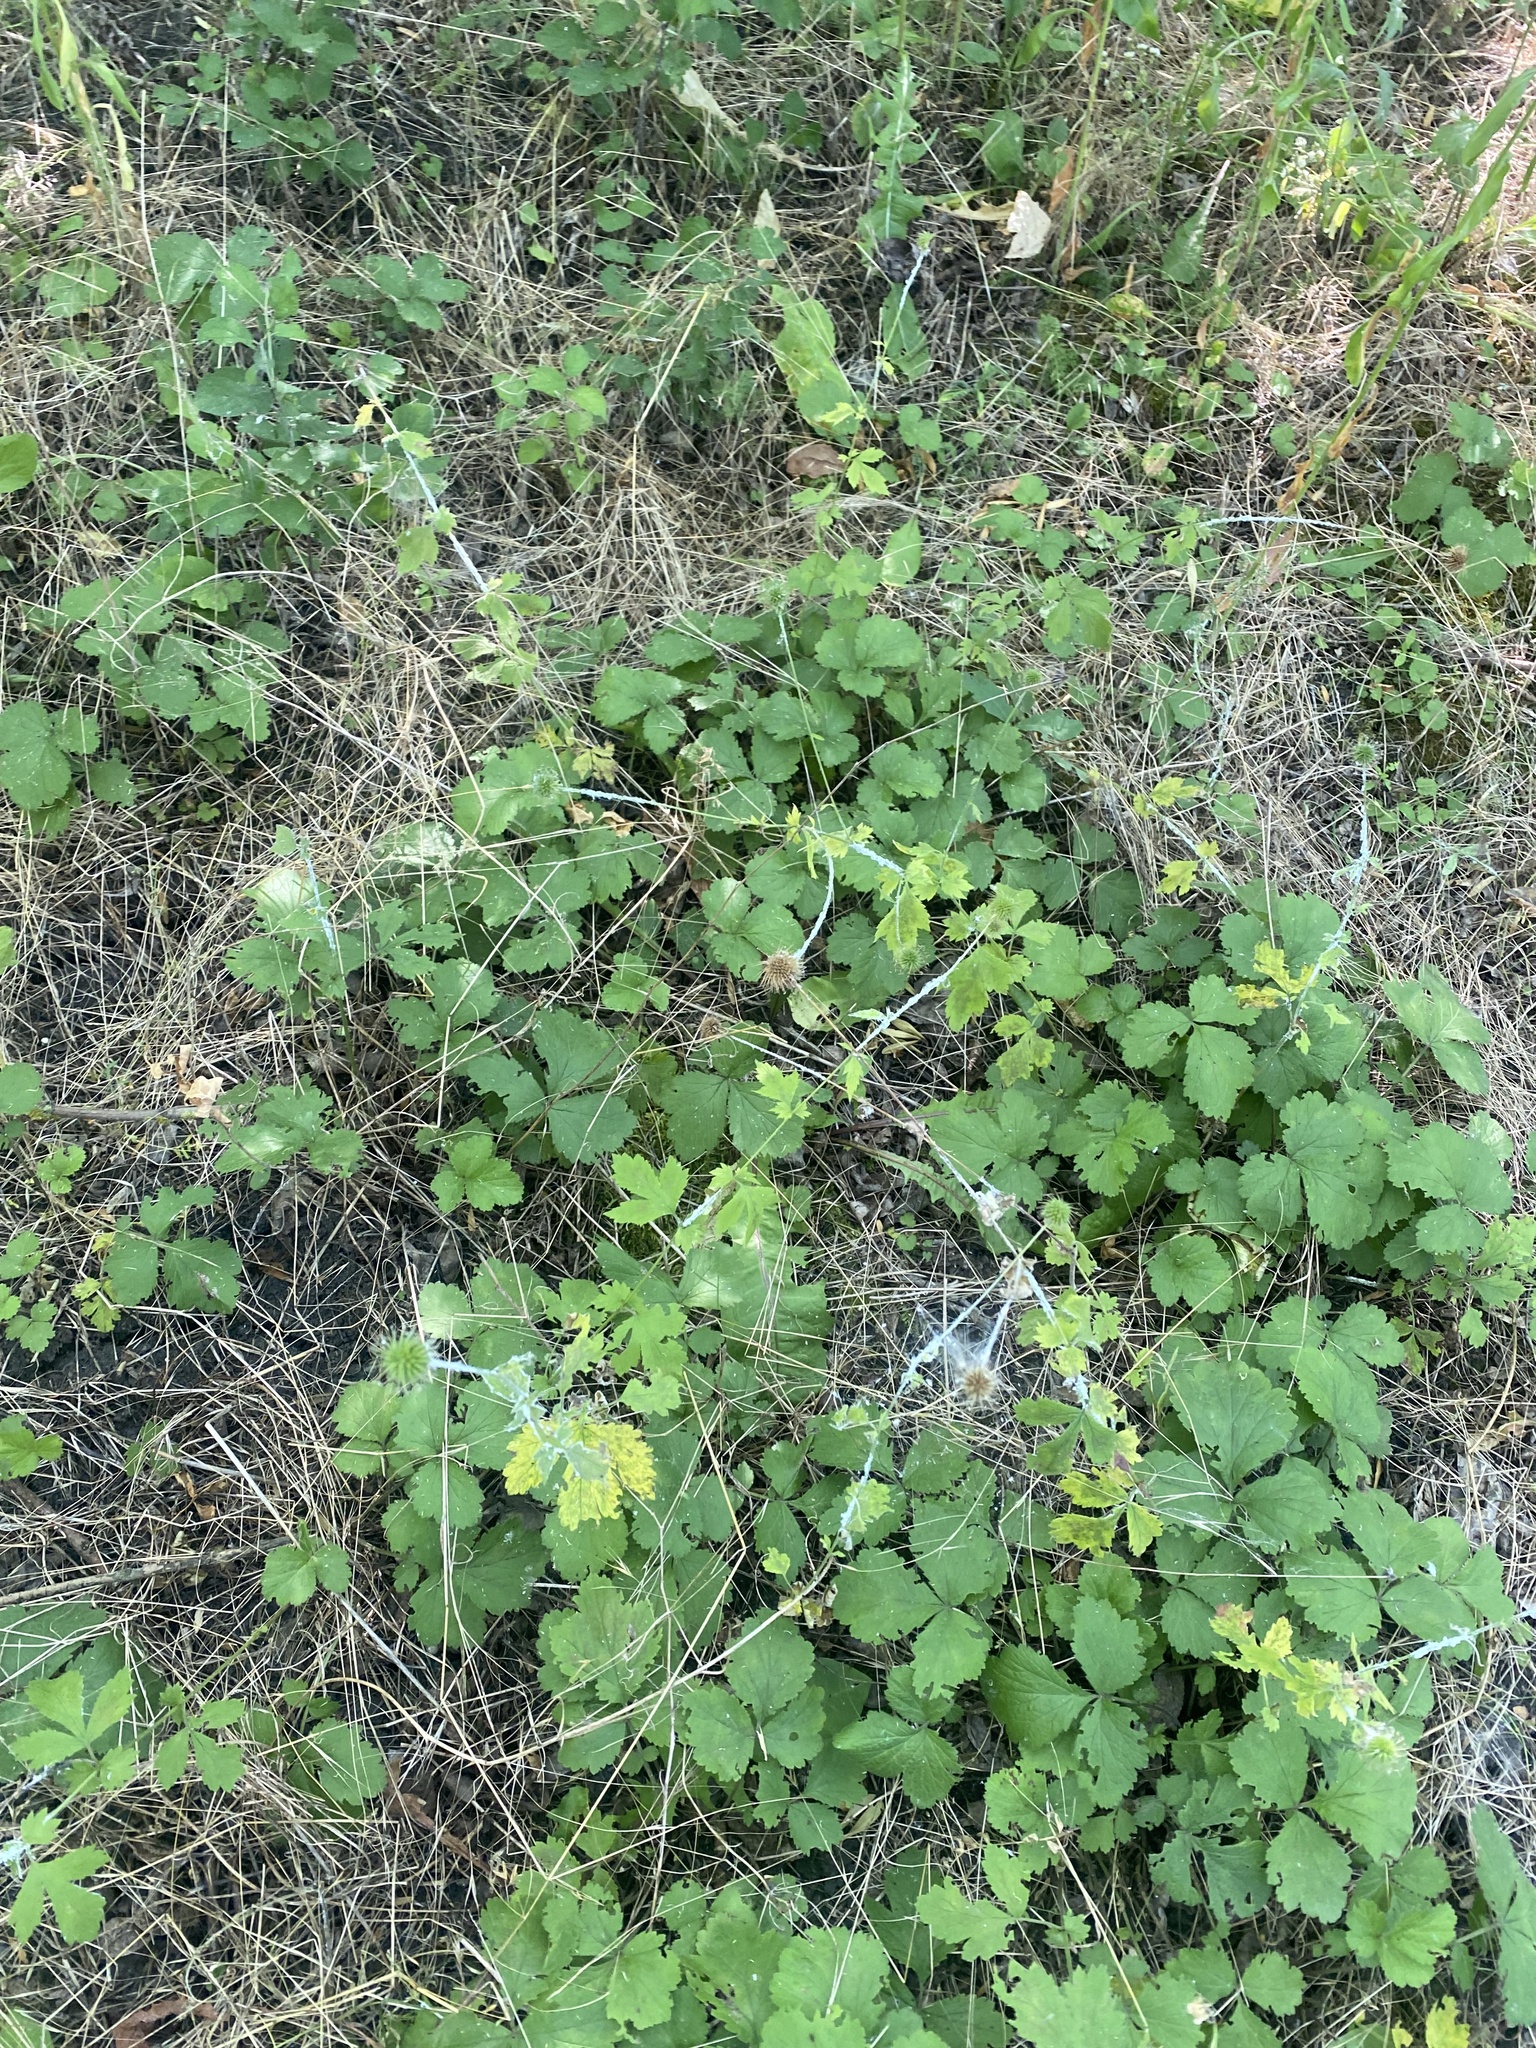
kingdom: Plantae
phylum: Tracheophyta
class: Magnoliopsida
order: Rosales
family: Rosaceae
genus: Geum
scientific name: Geum urbanum
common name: Wood avens
